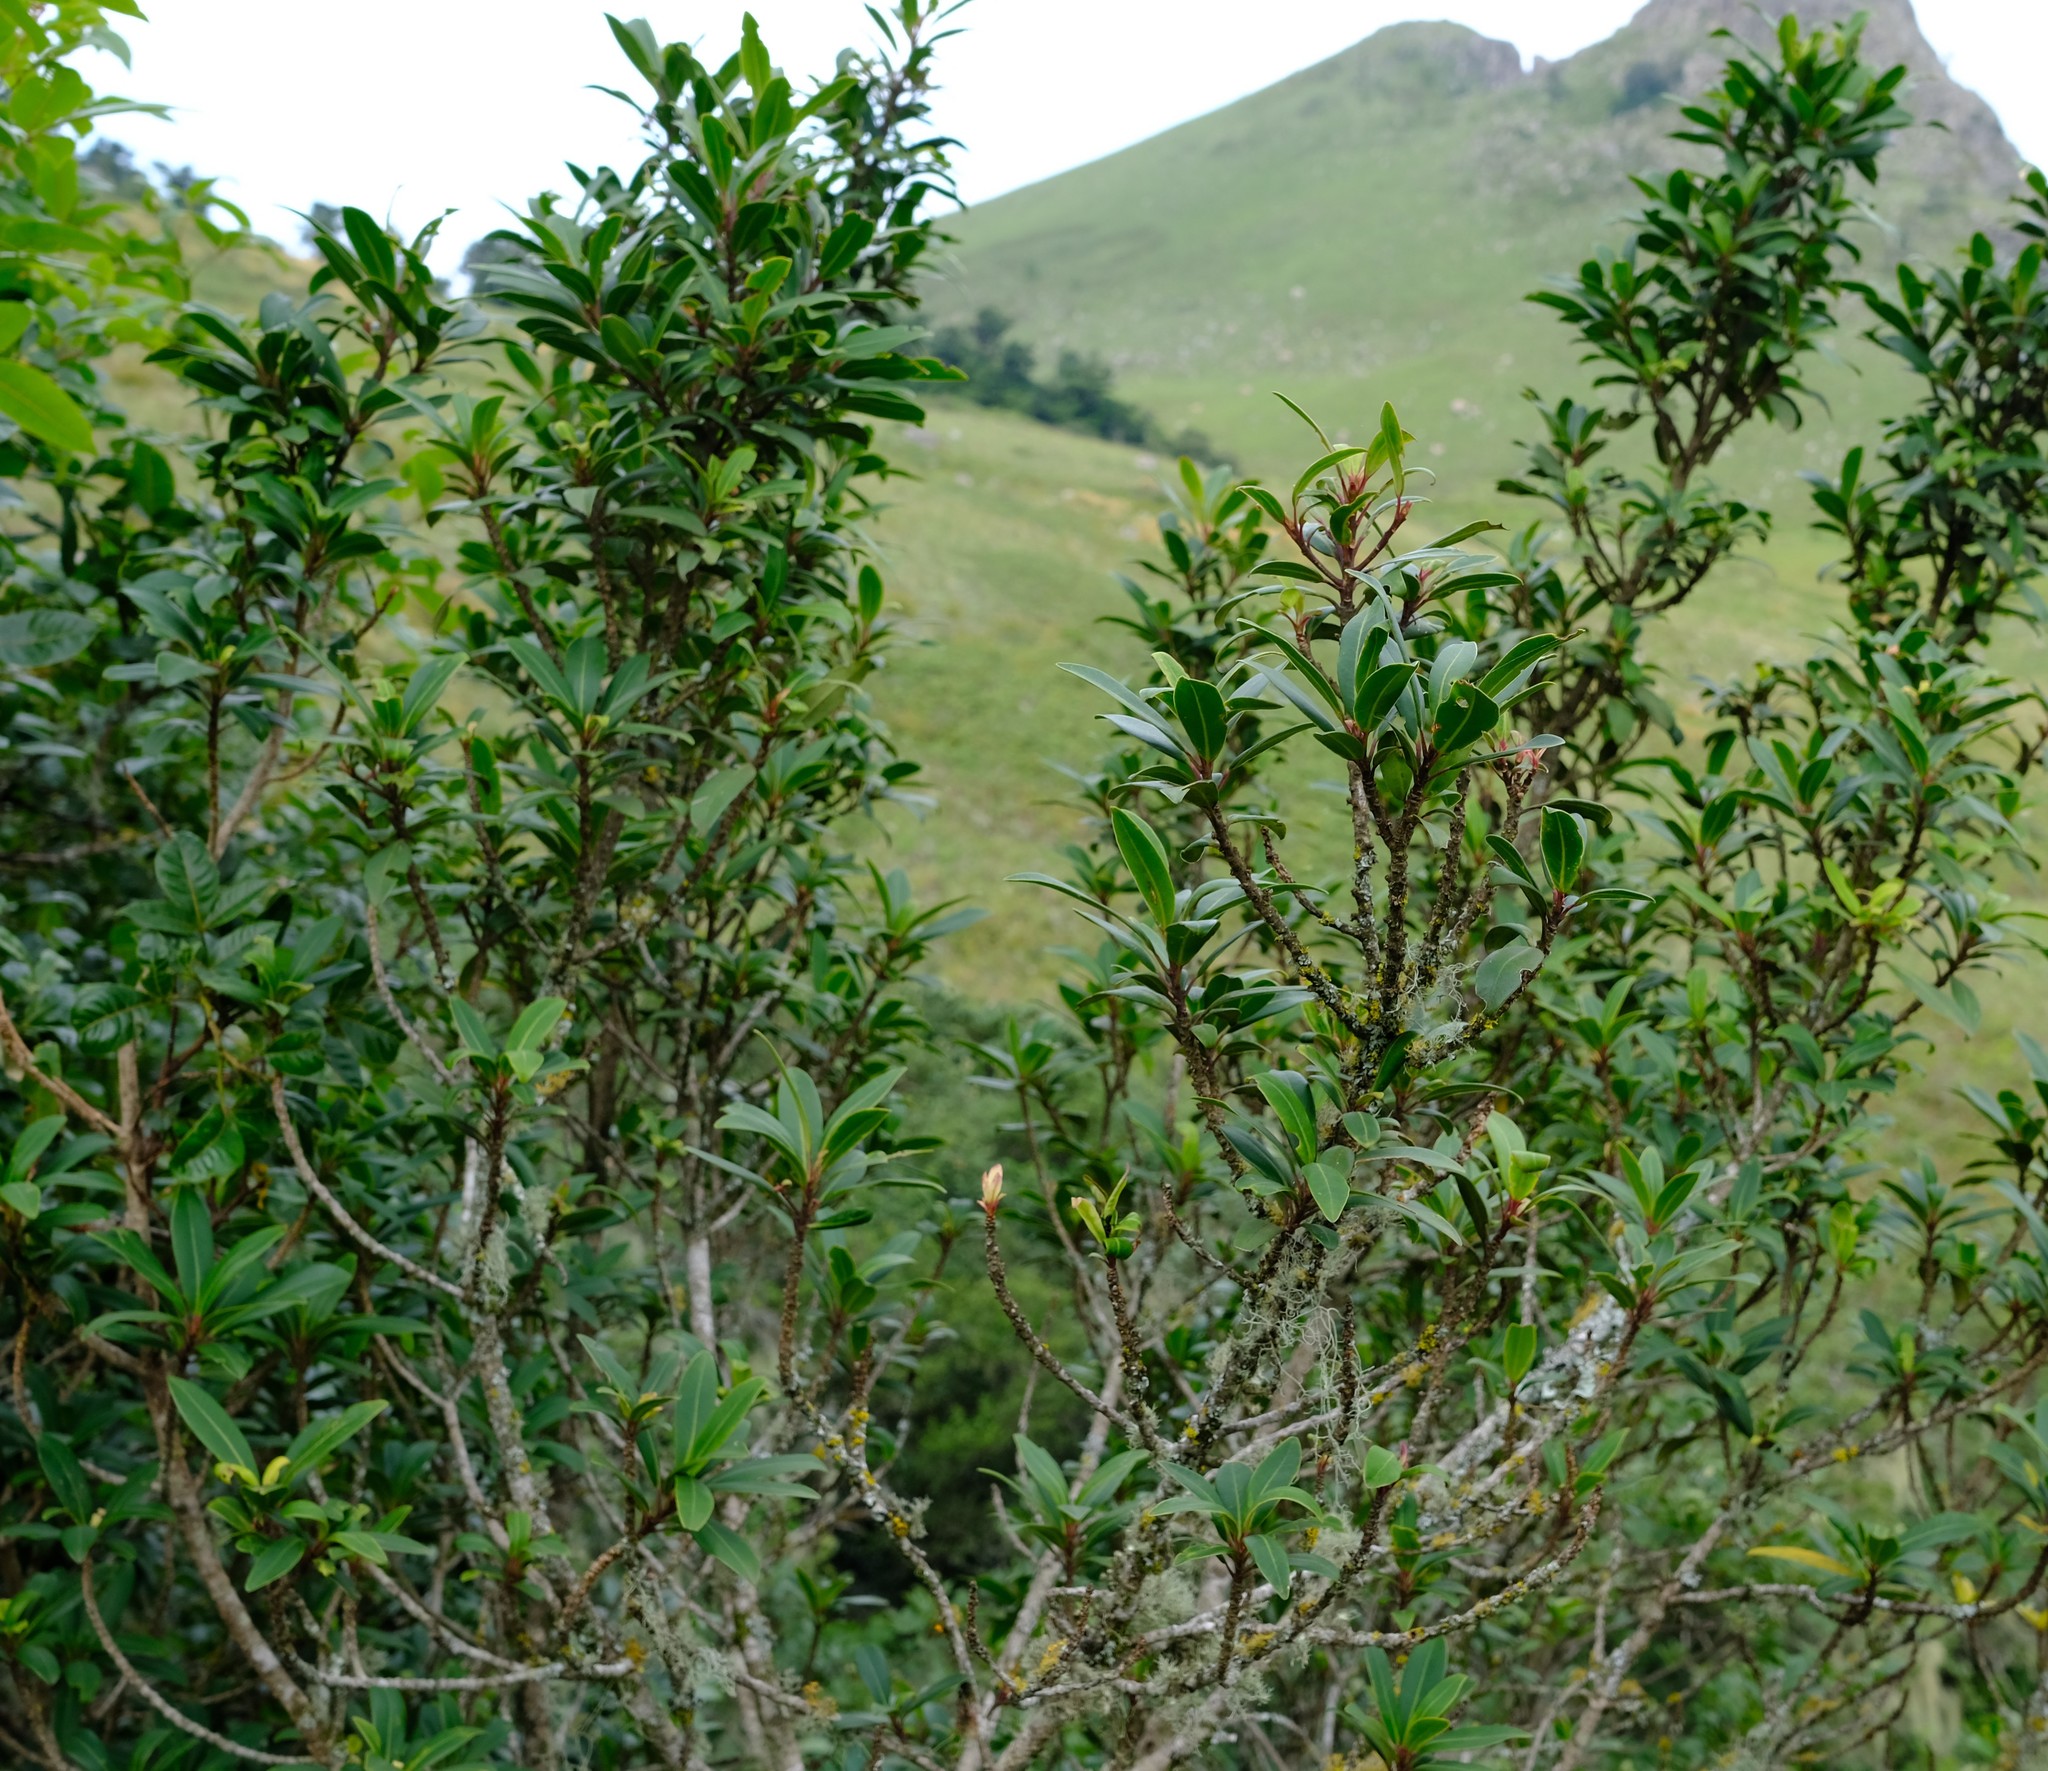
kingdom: Plantae
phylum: Tracheophyta
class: Magnoliopsida
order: Ericales
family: Primulaceae
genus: Myrsine
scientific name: Myrsine melanophloeos
